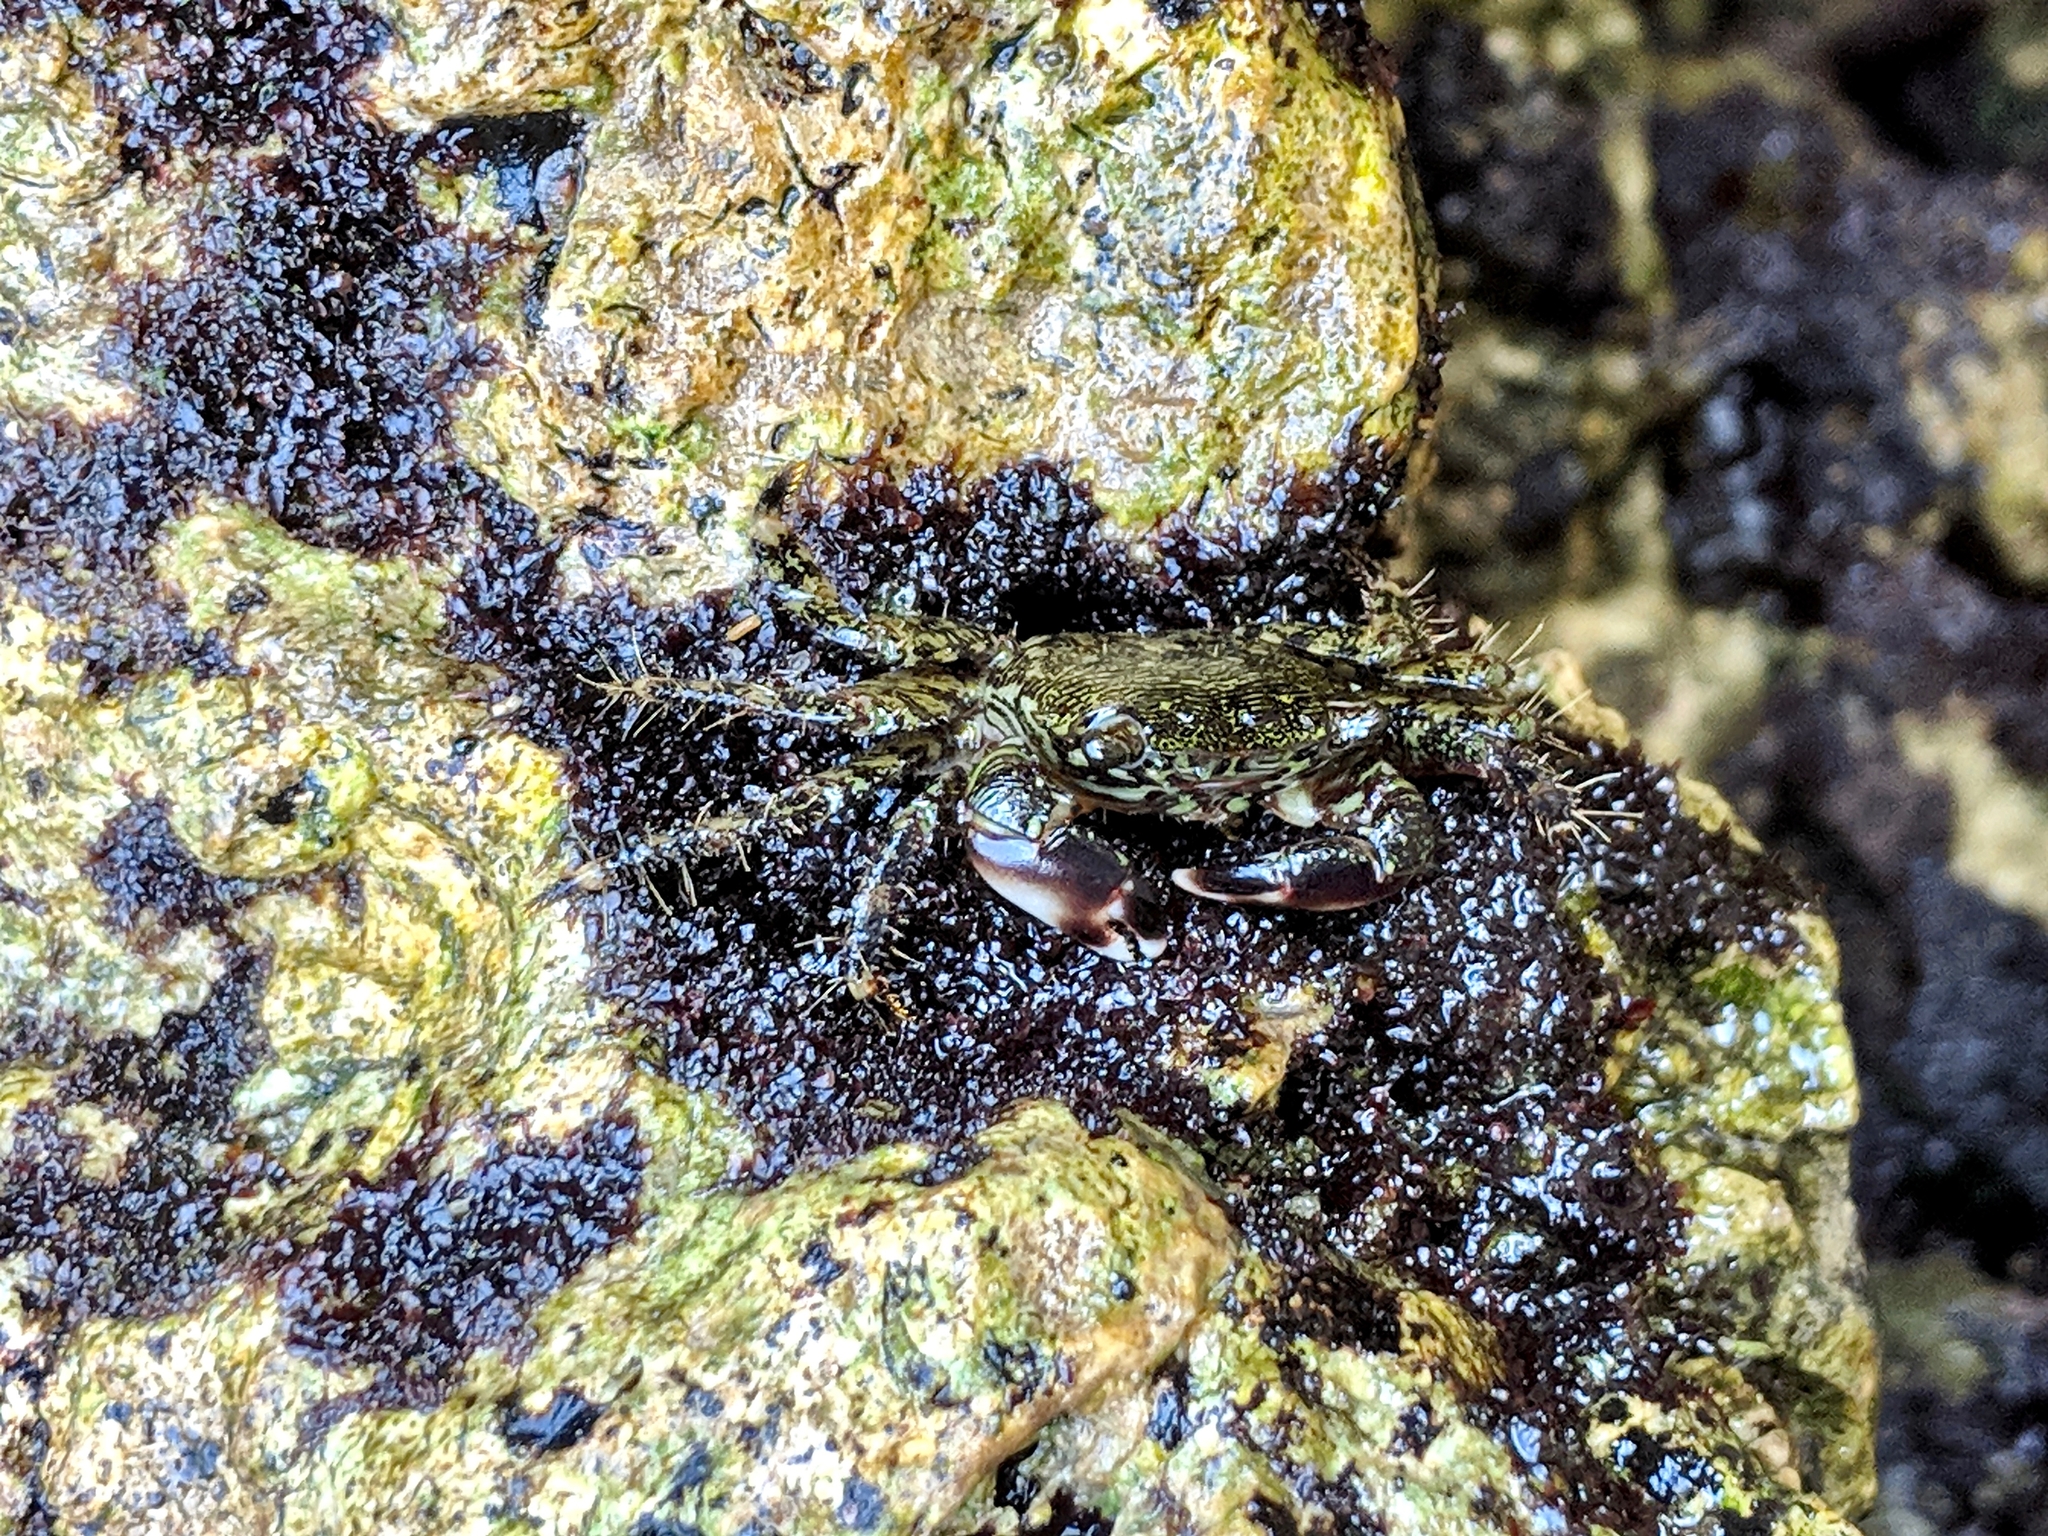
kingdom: Animalia
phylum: Arthropoda
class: Malacostraca
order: Decapoda
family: Grapsidae
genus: Pachygrapsus
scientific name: Pachygrapsus marmoratus
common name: Marbled rock crab
